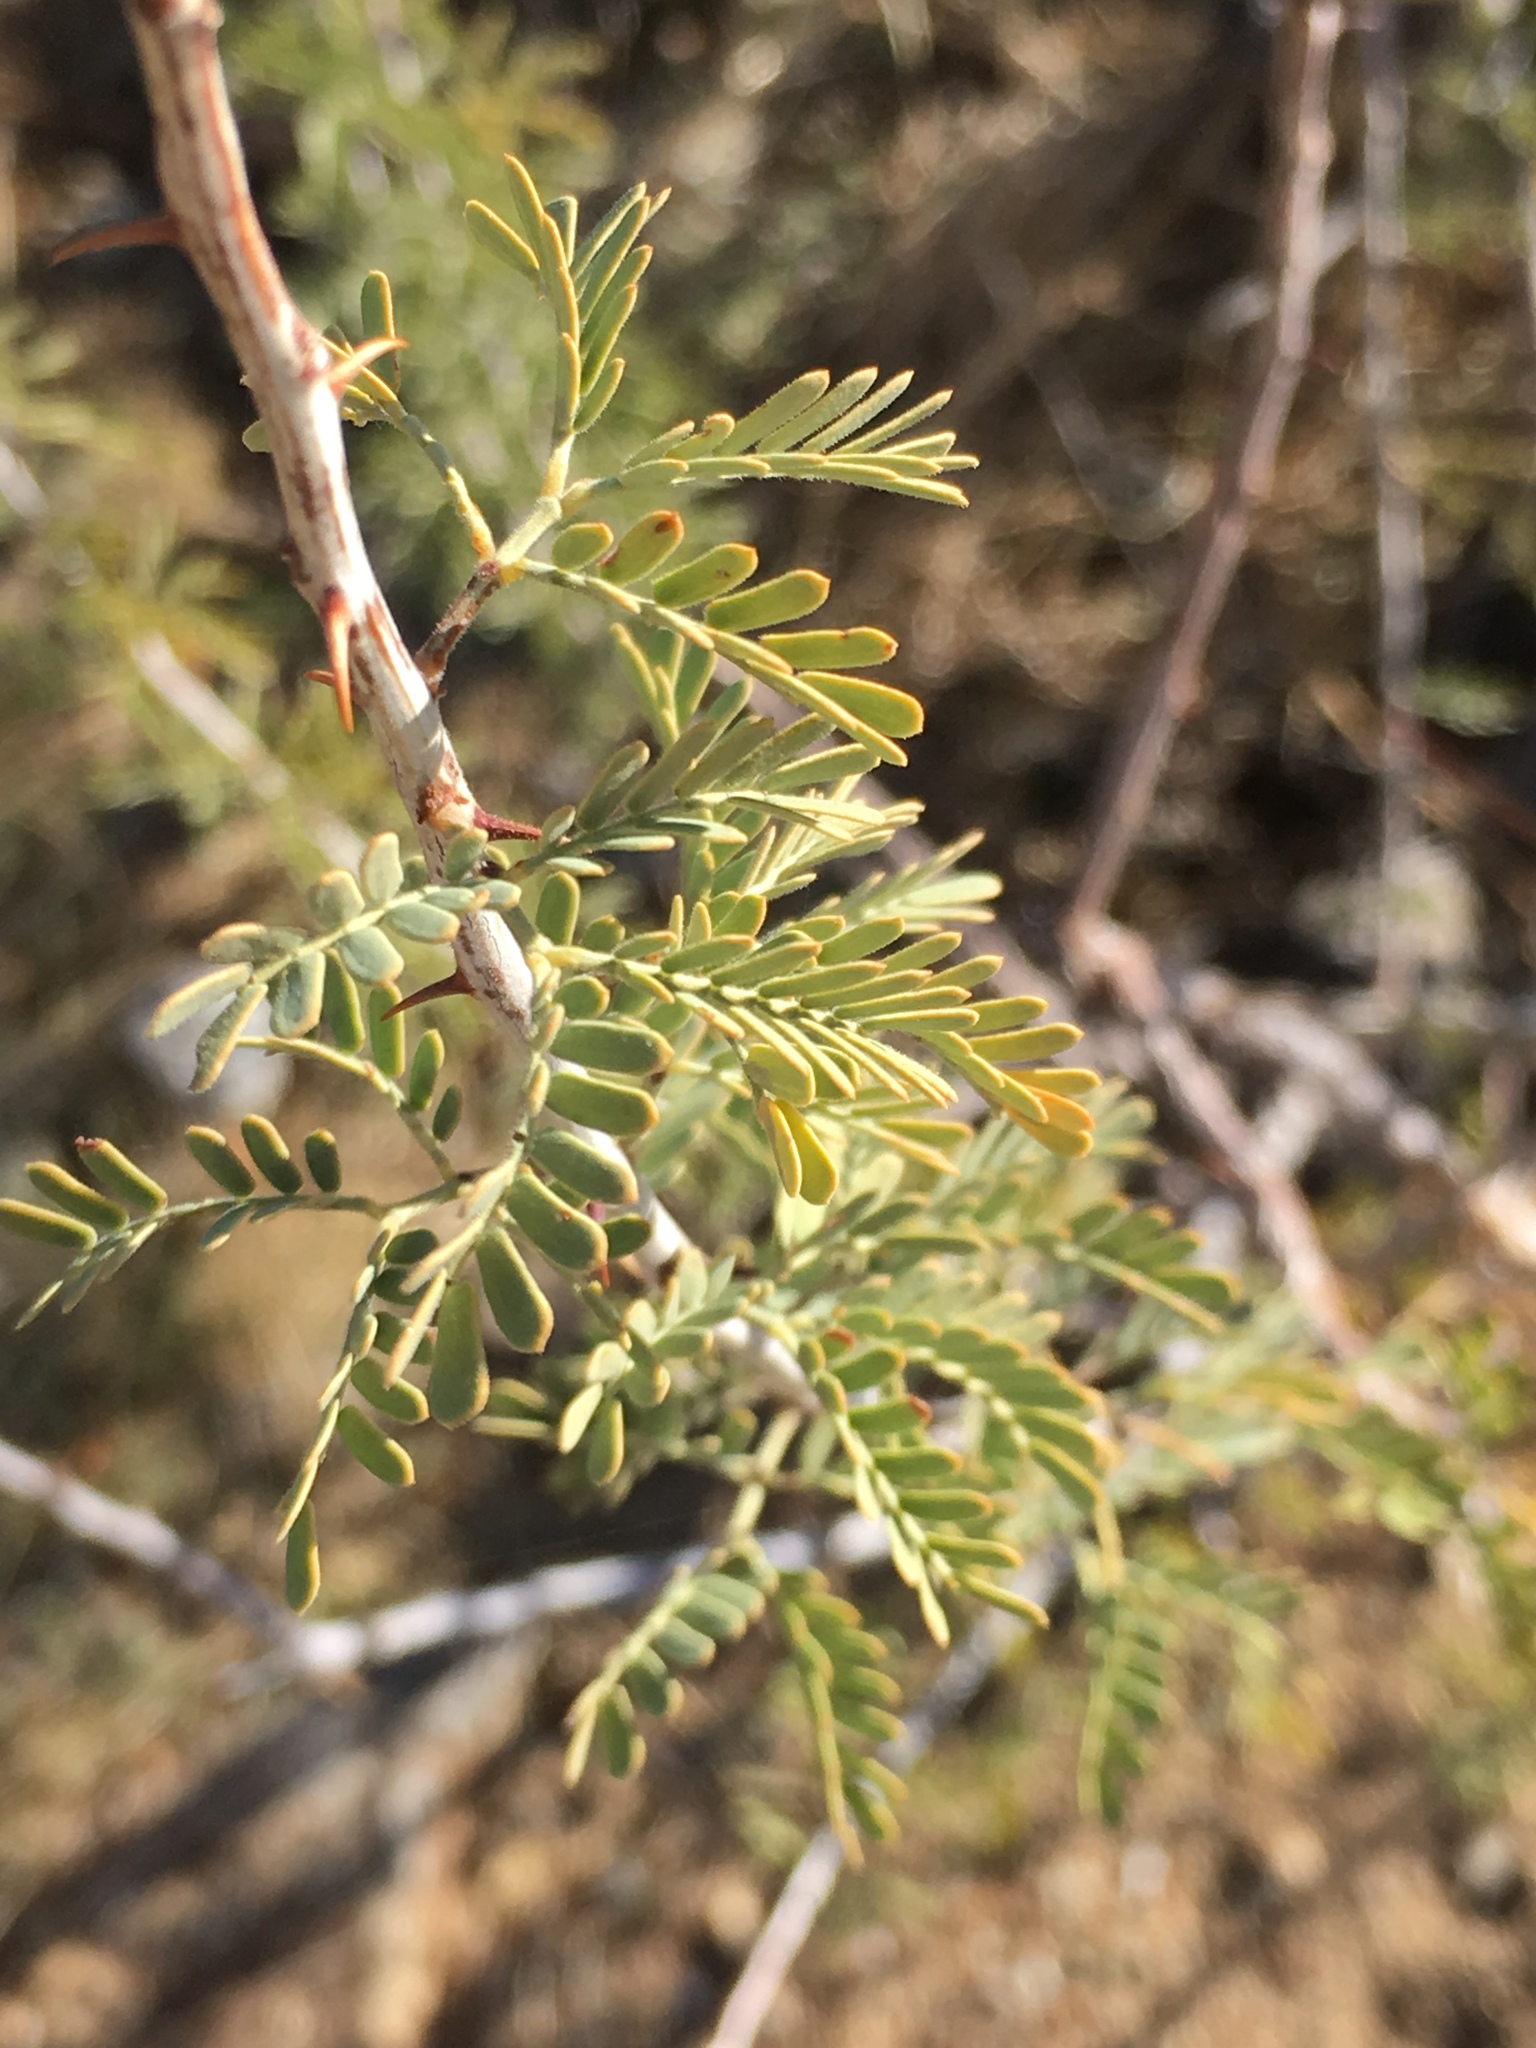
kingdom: Plantae
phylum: Tracheophyta
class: Magnoliopsida
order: Fabales
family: Fabaceae
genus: Senegalia
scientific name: Senegalia greggii
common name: Texas-mimosa
